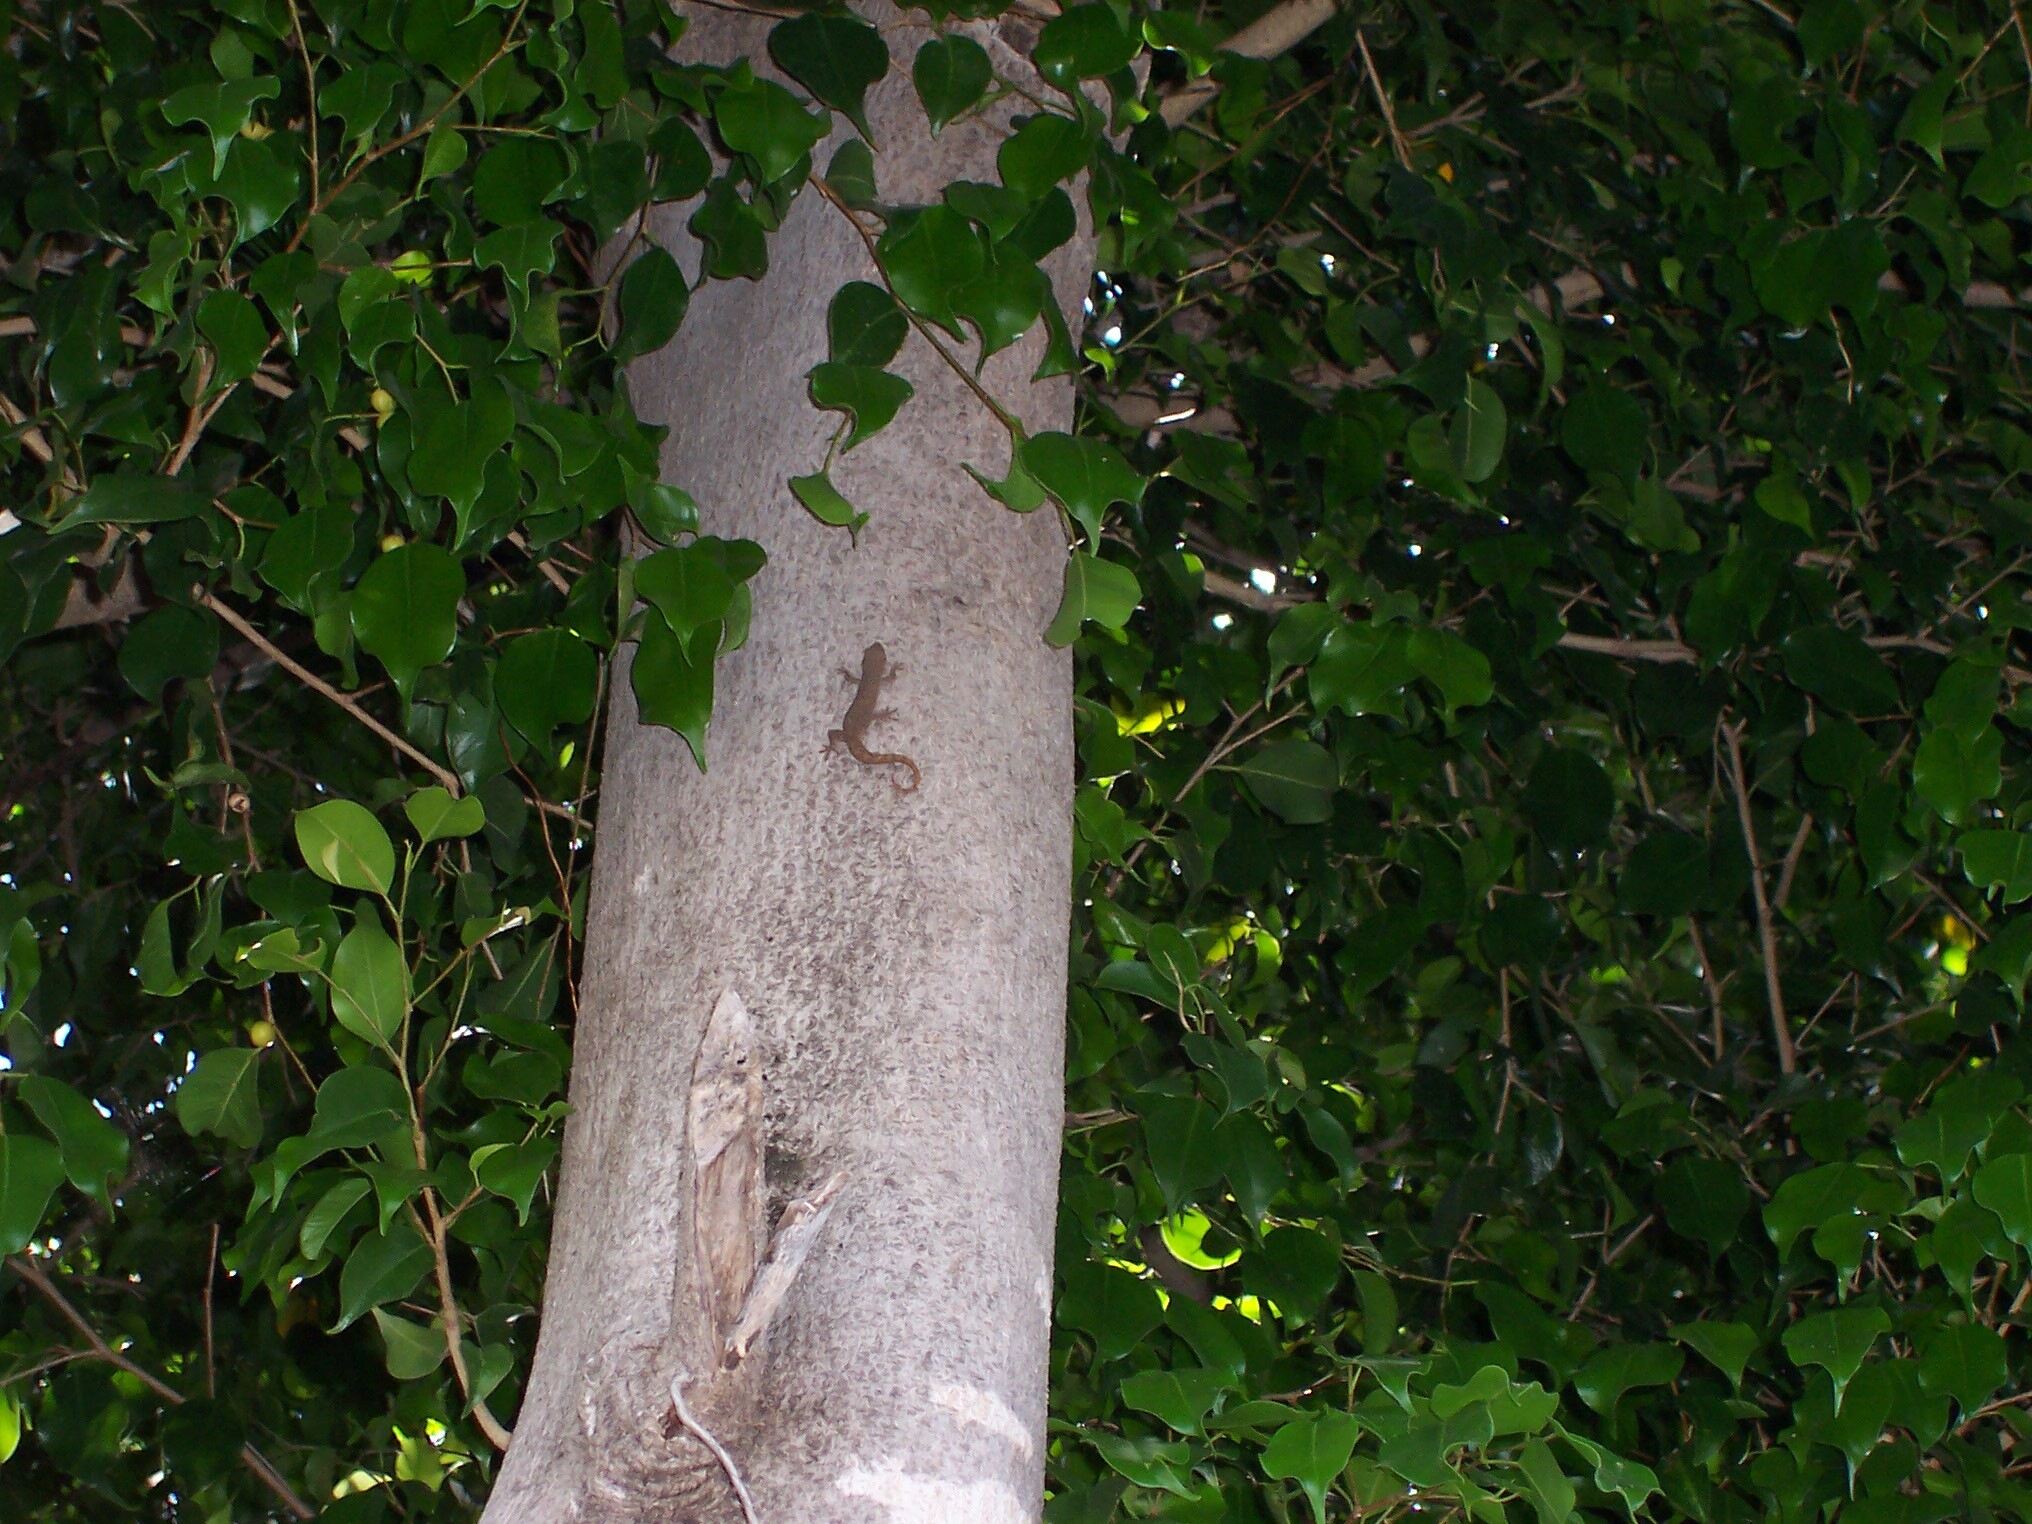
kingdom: Animalia
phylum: Chordata
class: Squamata
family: Gekkonidae
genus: Hemidactylus
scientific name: Hemidactylus frenatus
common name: Common house gecko
